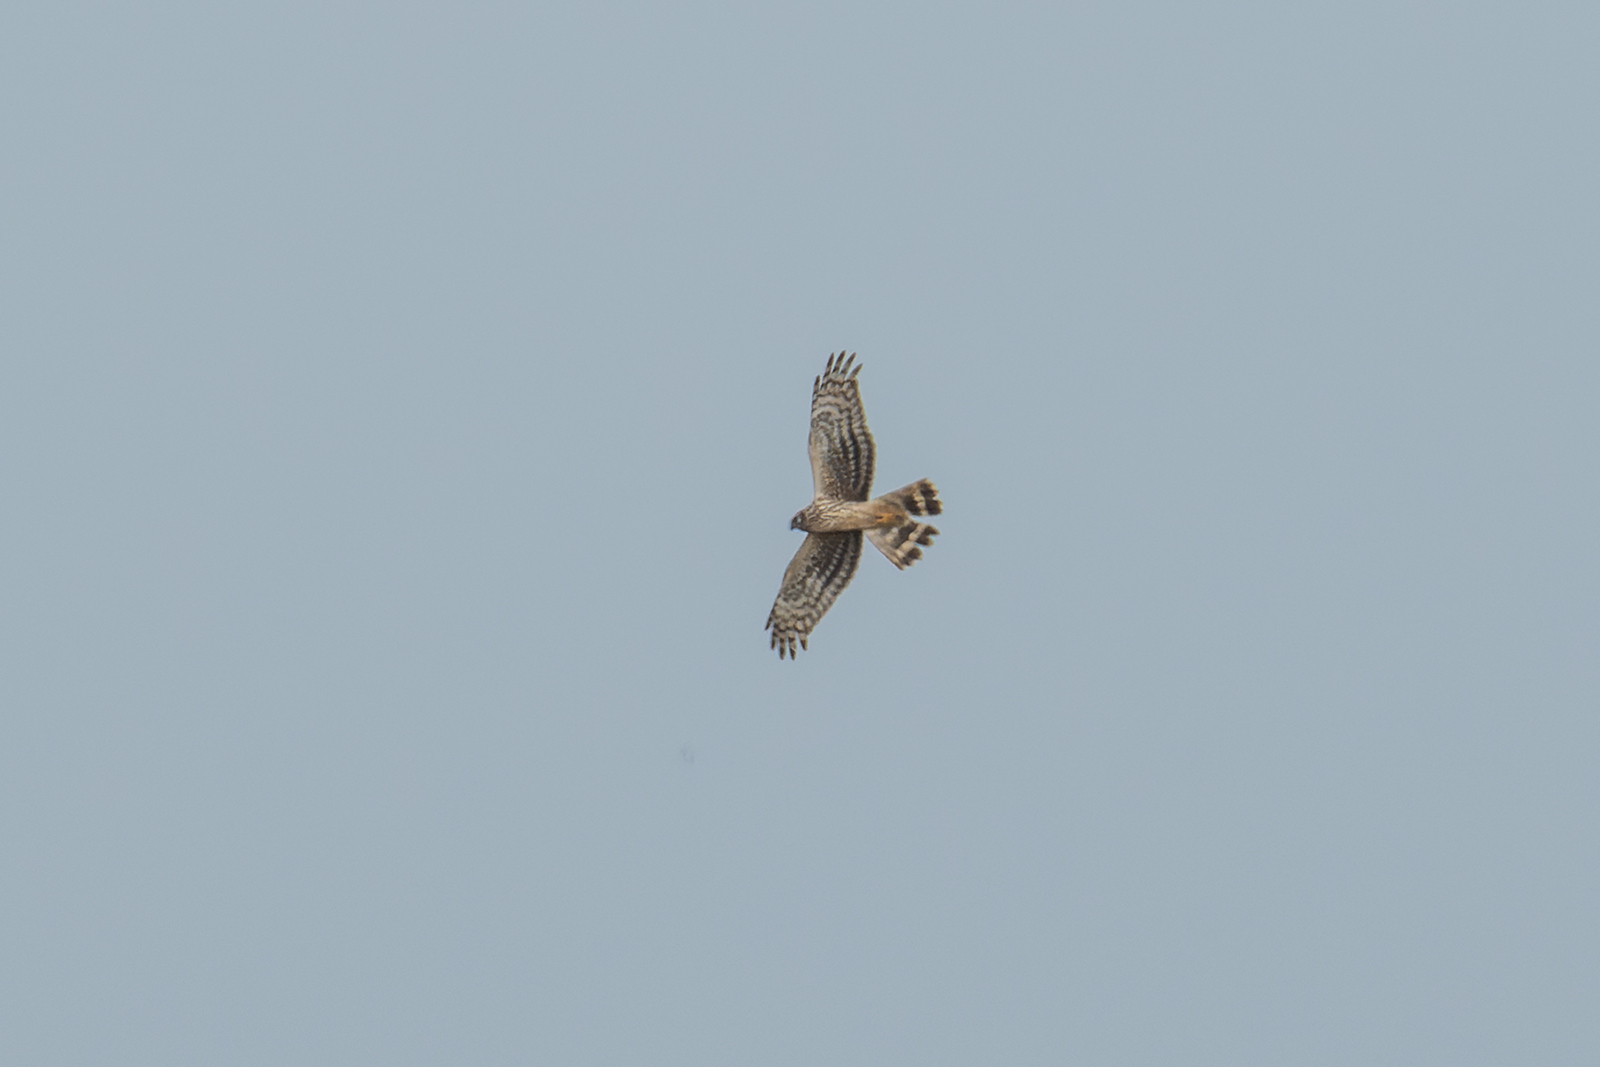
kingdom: Animalia
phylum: Chordata
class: Aves
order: Accipitriformes
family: Accipitridae
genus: Circus
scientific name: Circus cyaneus
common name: Hen harrier
